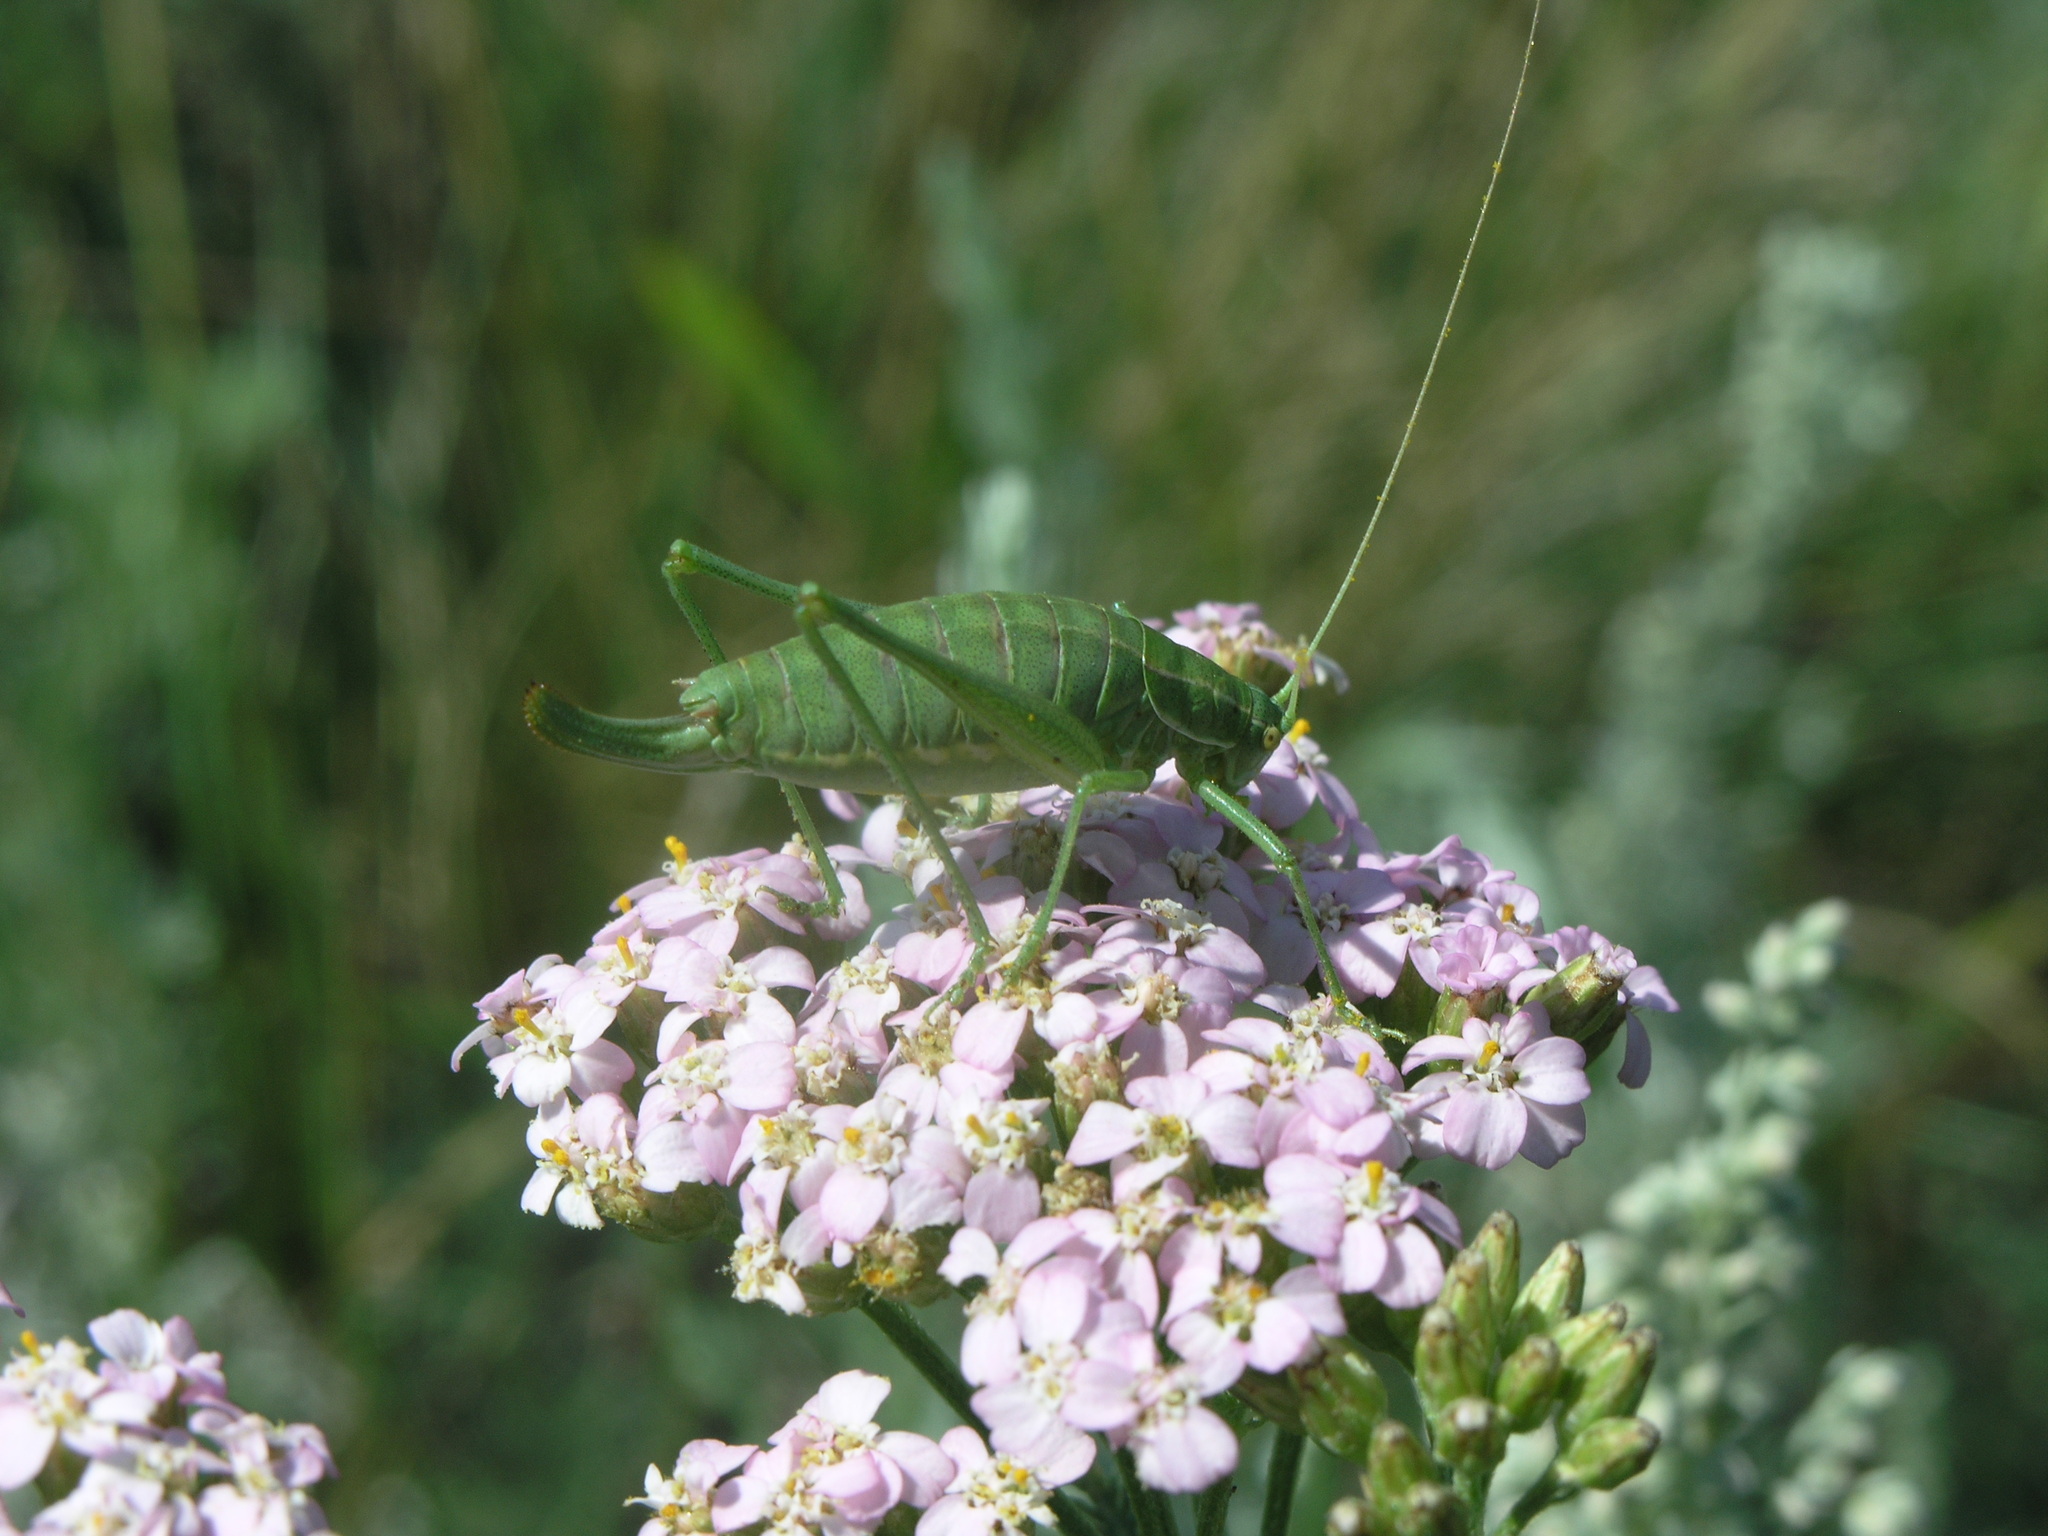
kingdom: Animalia
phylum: Arthropoda
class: Insecta
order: Orthoptera
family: Tettigoniidae
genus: Poecilimon
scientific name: Poecilimon intermedius
